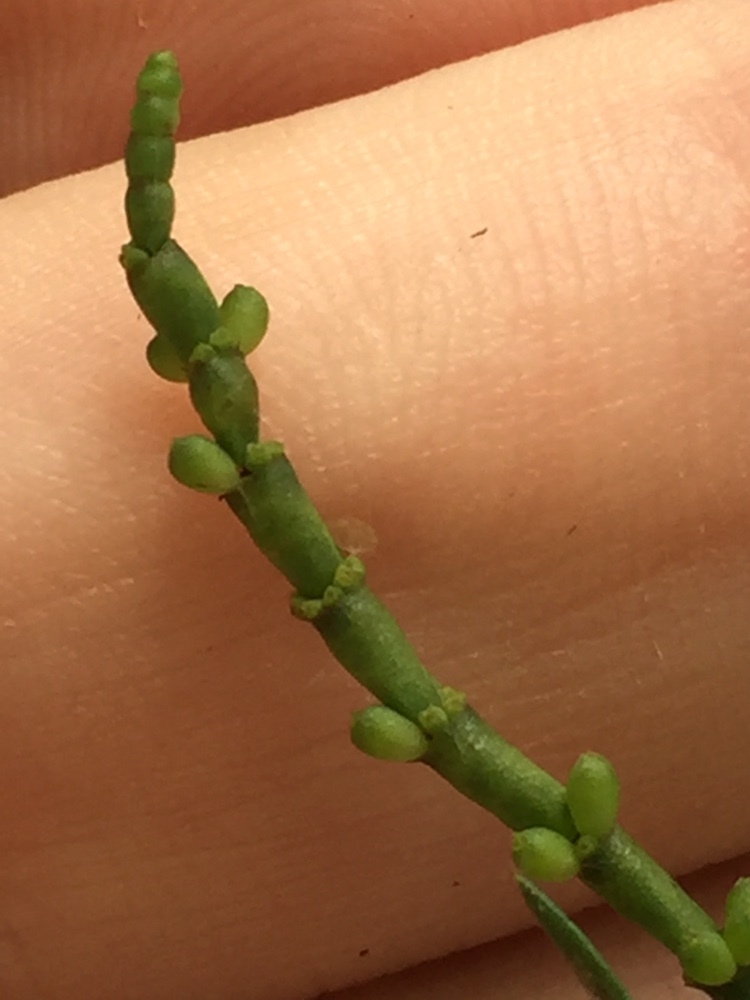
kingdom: Plantae
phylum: Tracheophyta
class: Magnoliopsida
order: Santalales
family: Viscaceae
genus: Korthalsella
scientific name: Korthalsella salicornioides
